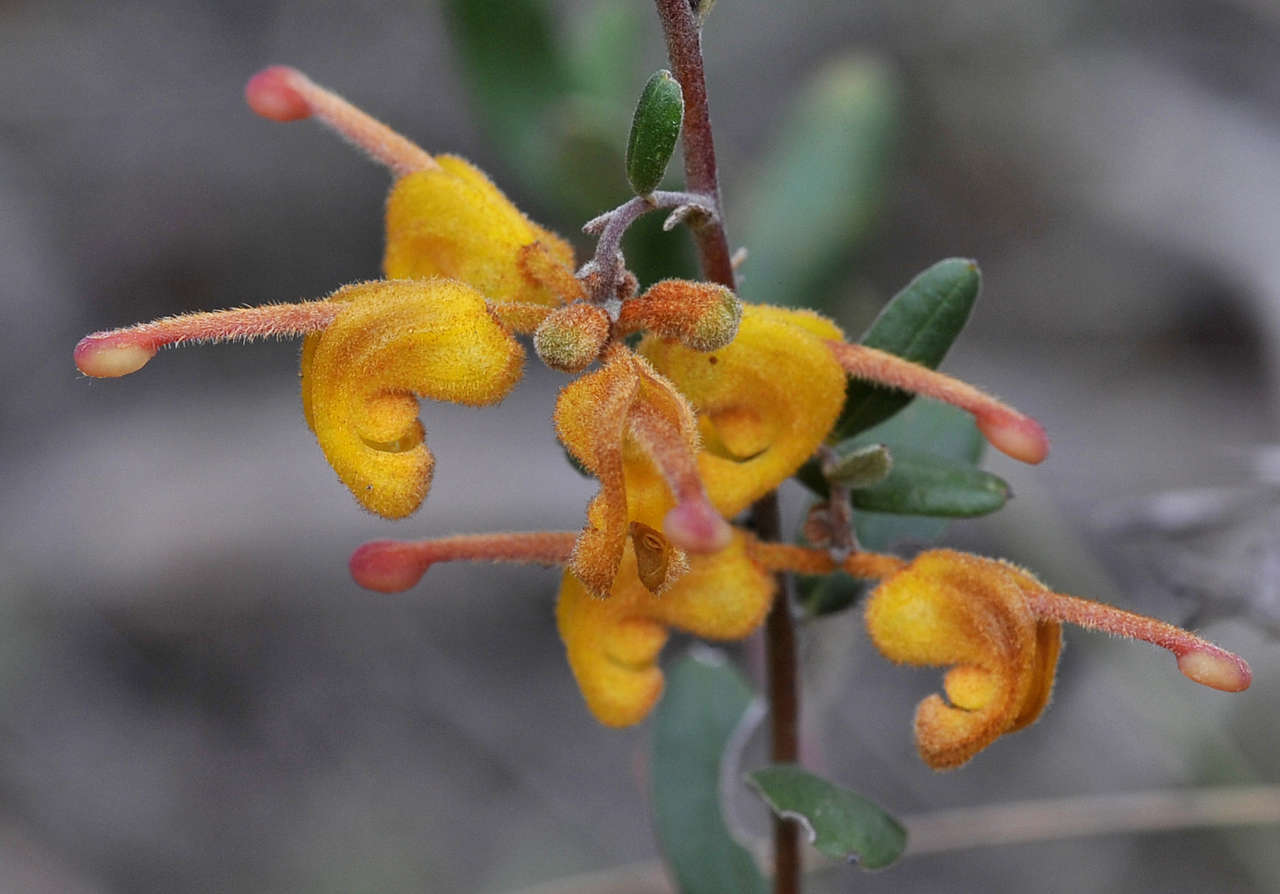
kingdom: Plantae
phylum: Tracheophyta
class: Magnoliopsida
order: Proteales
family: Proteaceae
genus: Grevillea
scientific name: Grevillea chrysophaea
